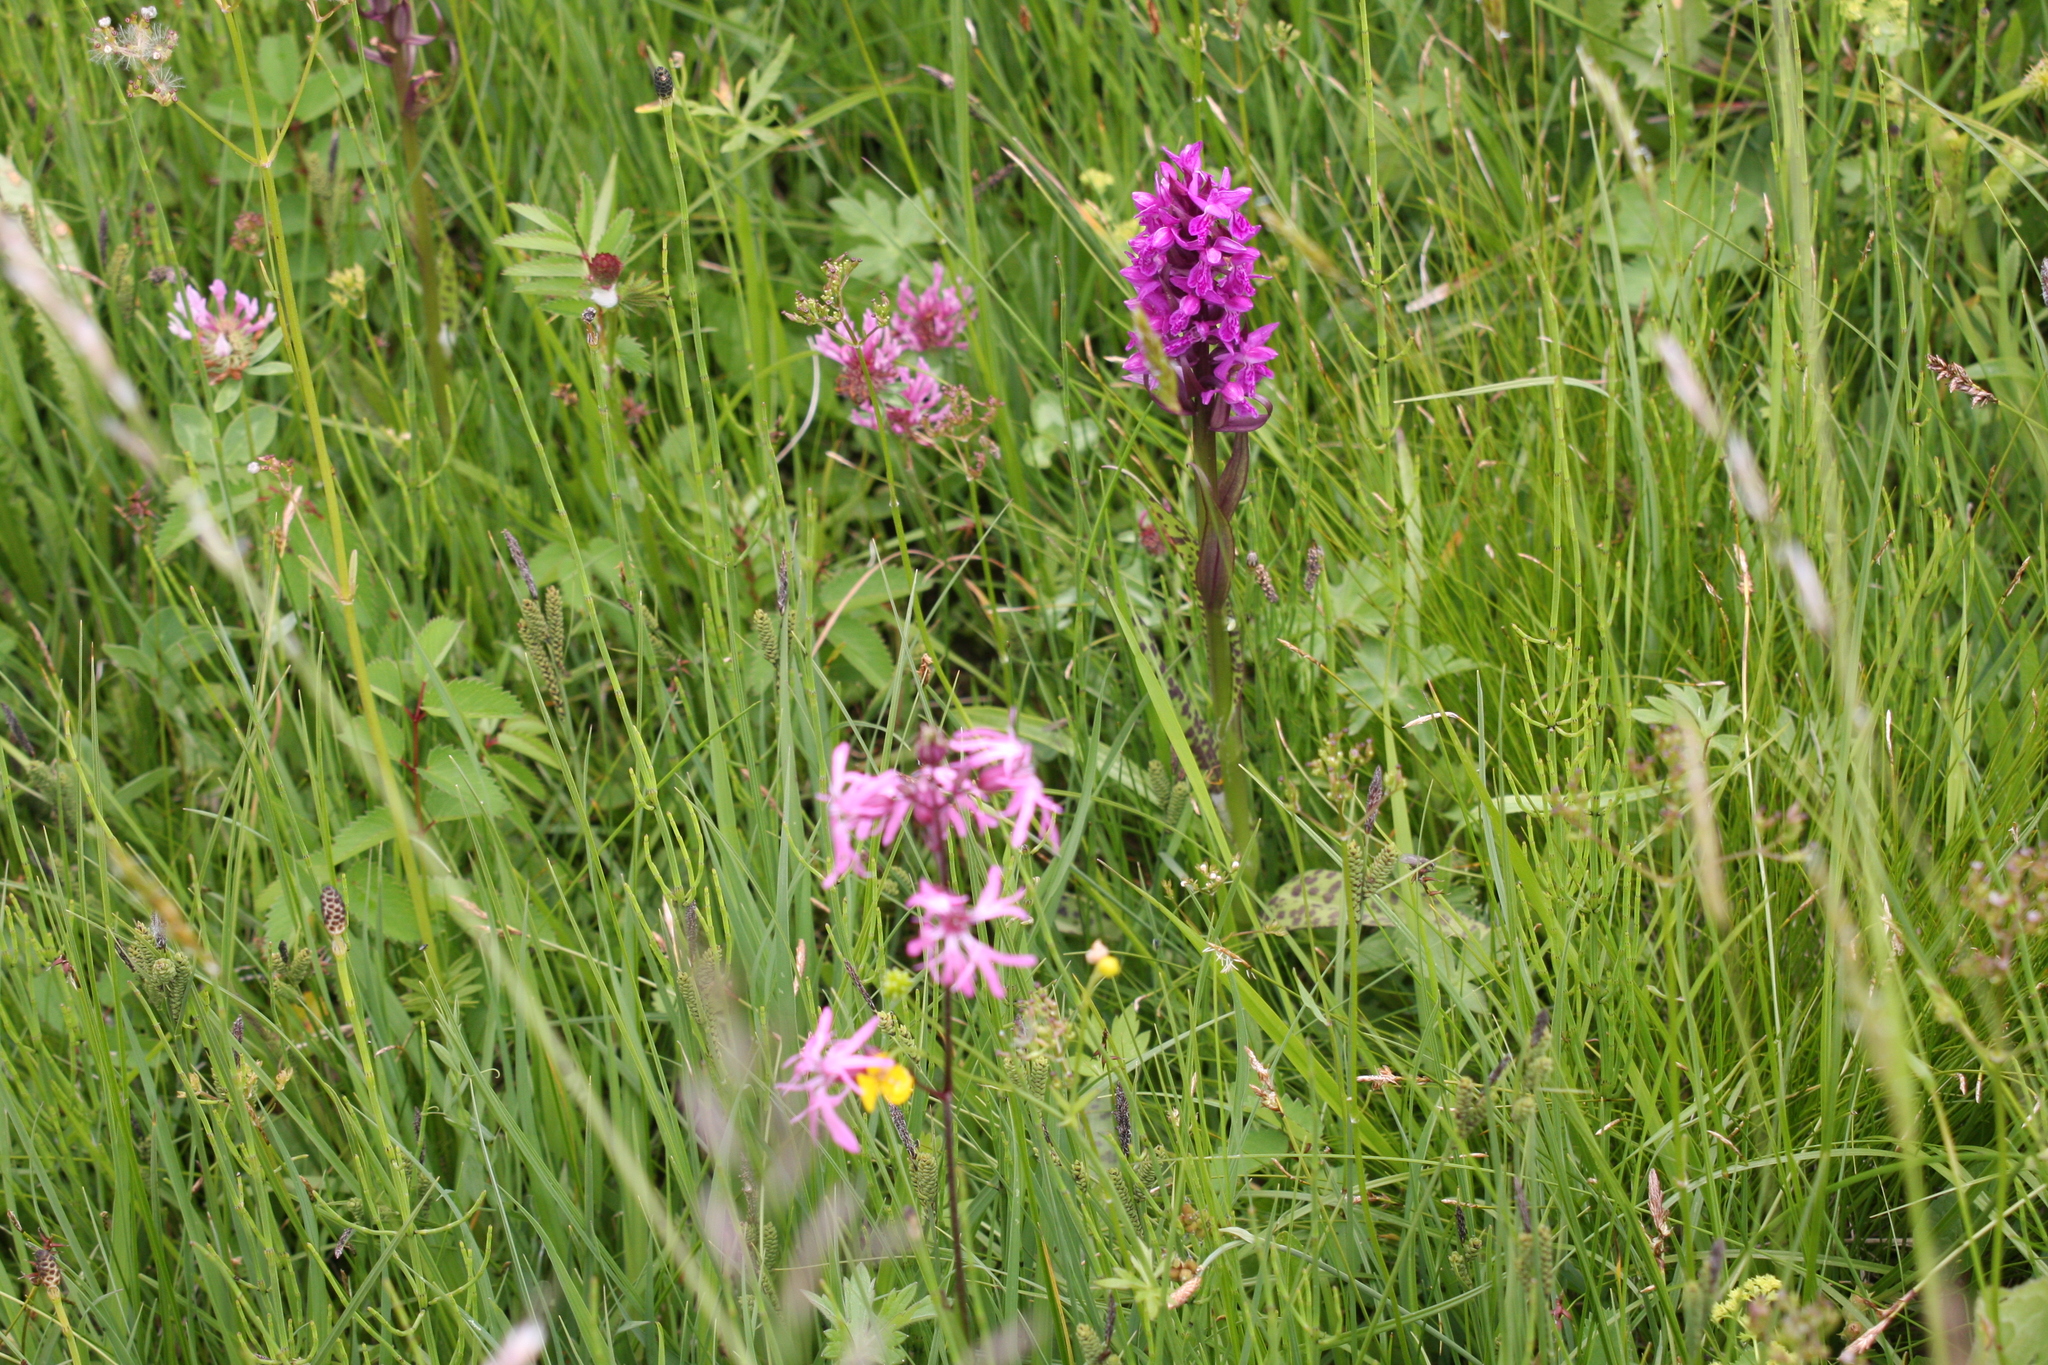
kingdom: Plantae
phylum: Tracheophyta
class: Liliopsida
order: Asparagales
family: Orchidaceae
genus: Dactylorhiza
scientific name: Dactylorhiza majalis
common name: Marsh orchid
